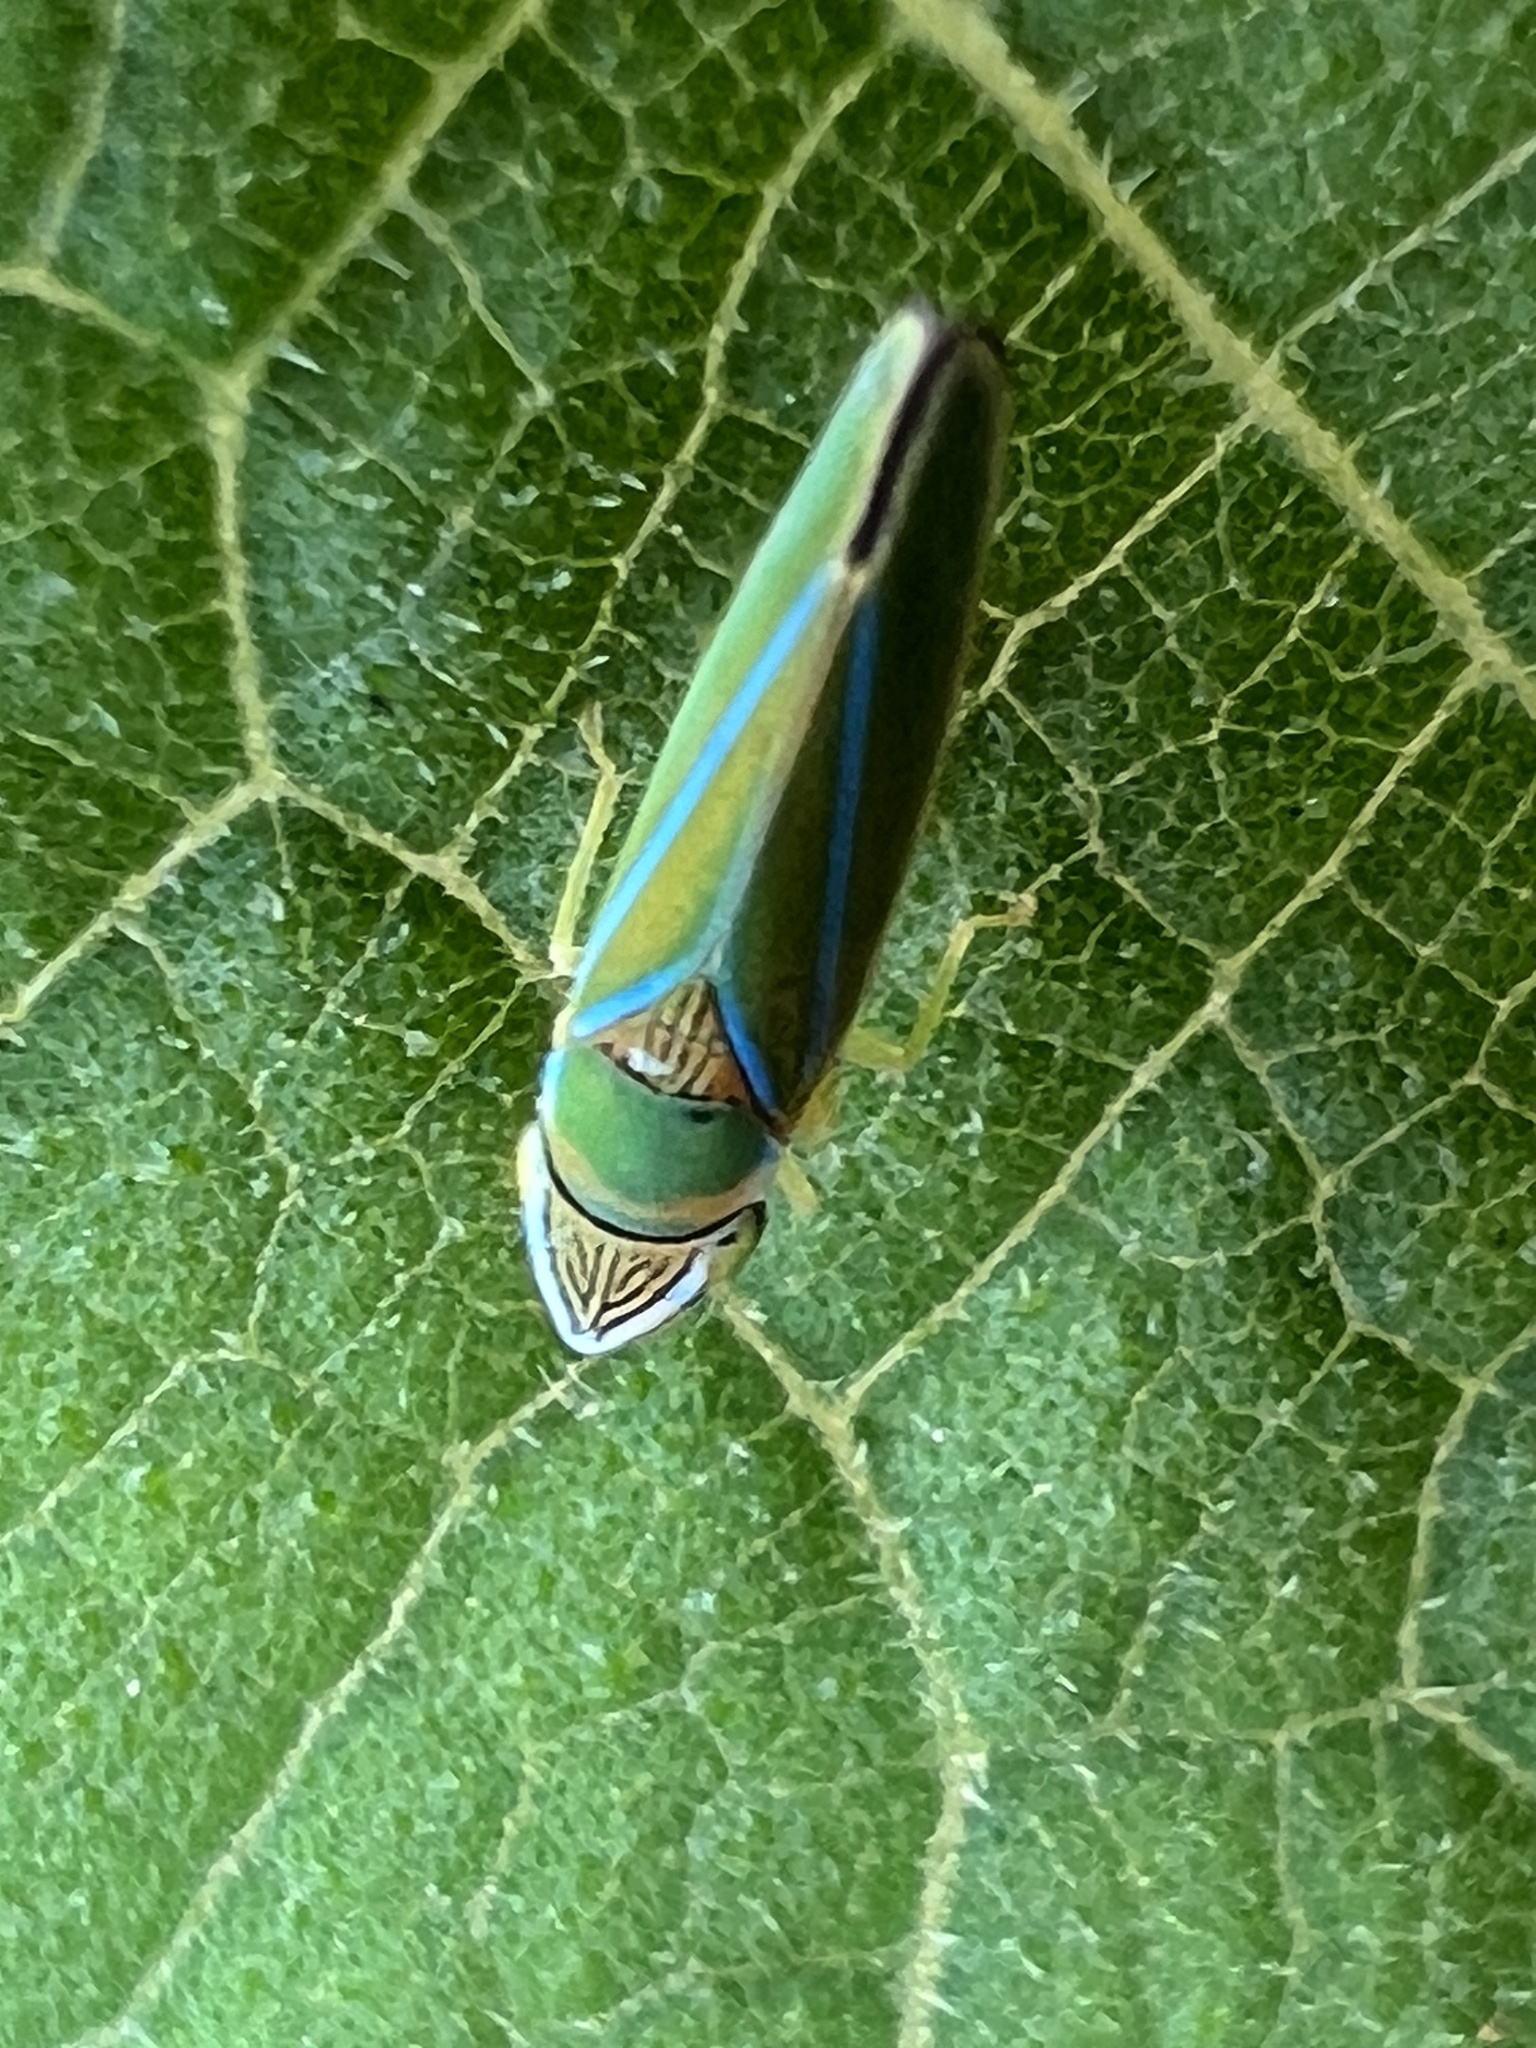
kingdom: Animalia
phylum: Arthropoda
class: Insecta
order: Hemiptera
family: Cicadellidae
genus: Graphocephala
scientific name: Graphocephala redacta
